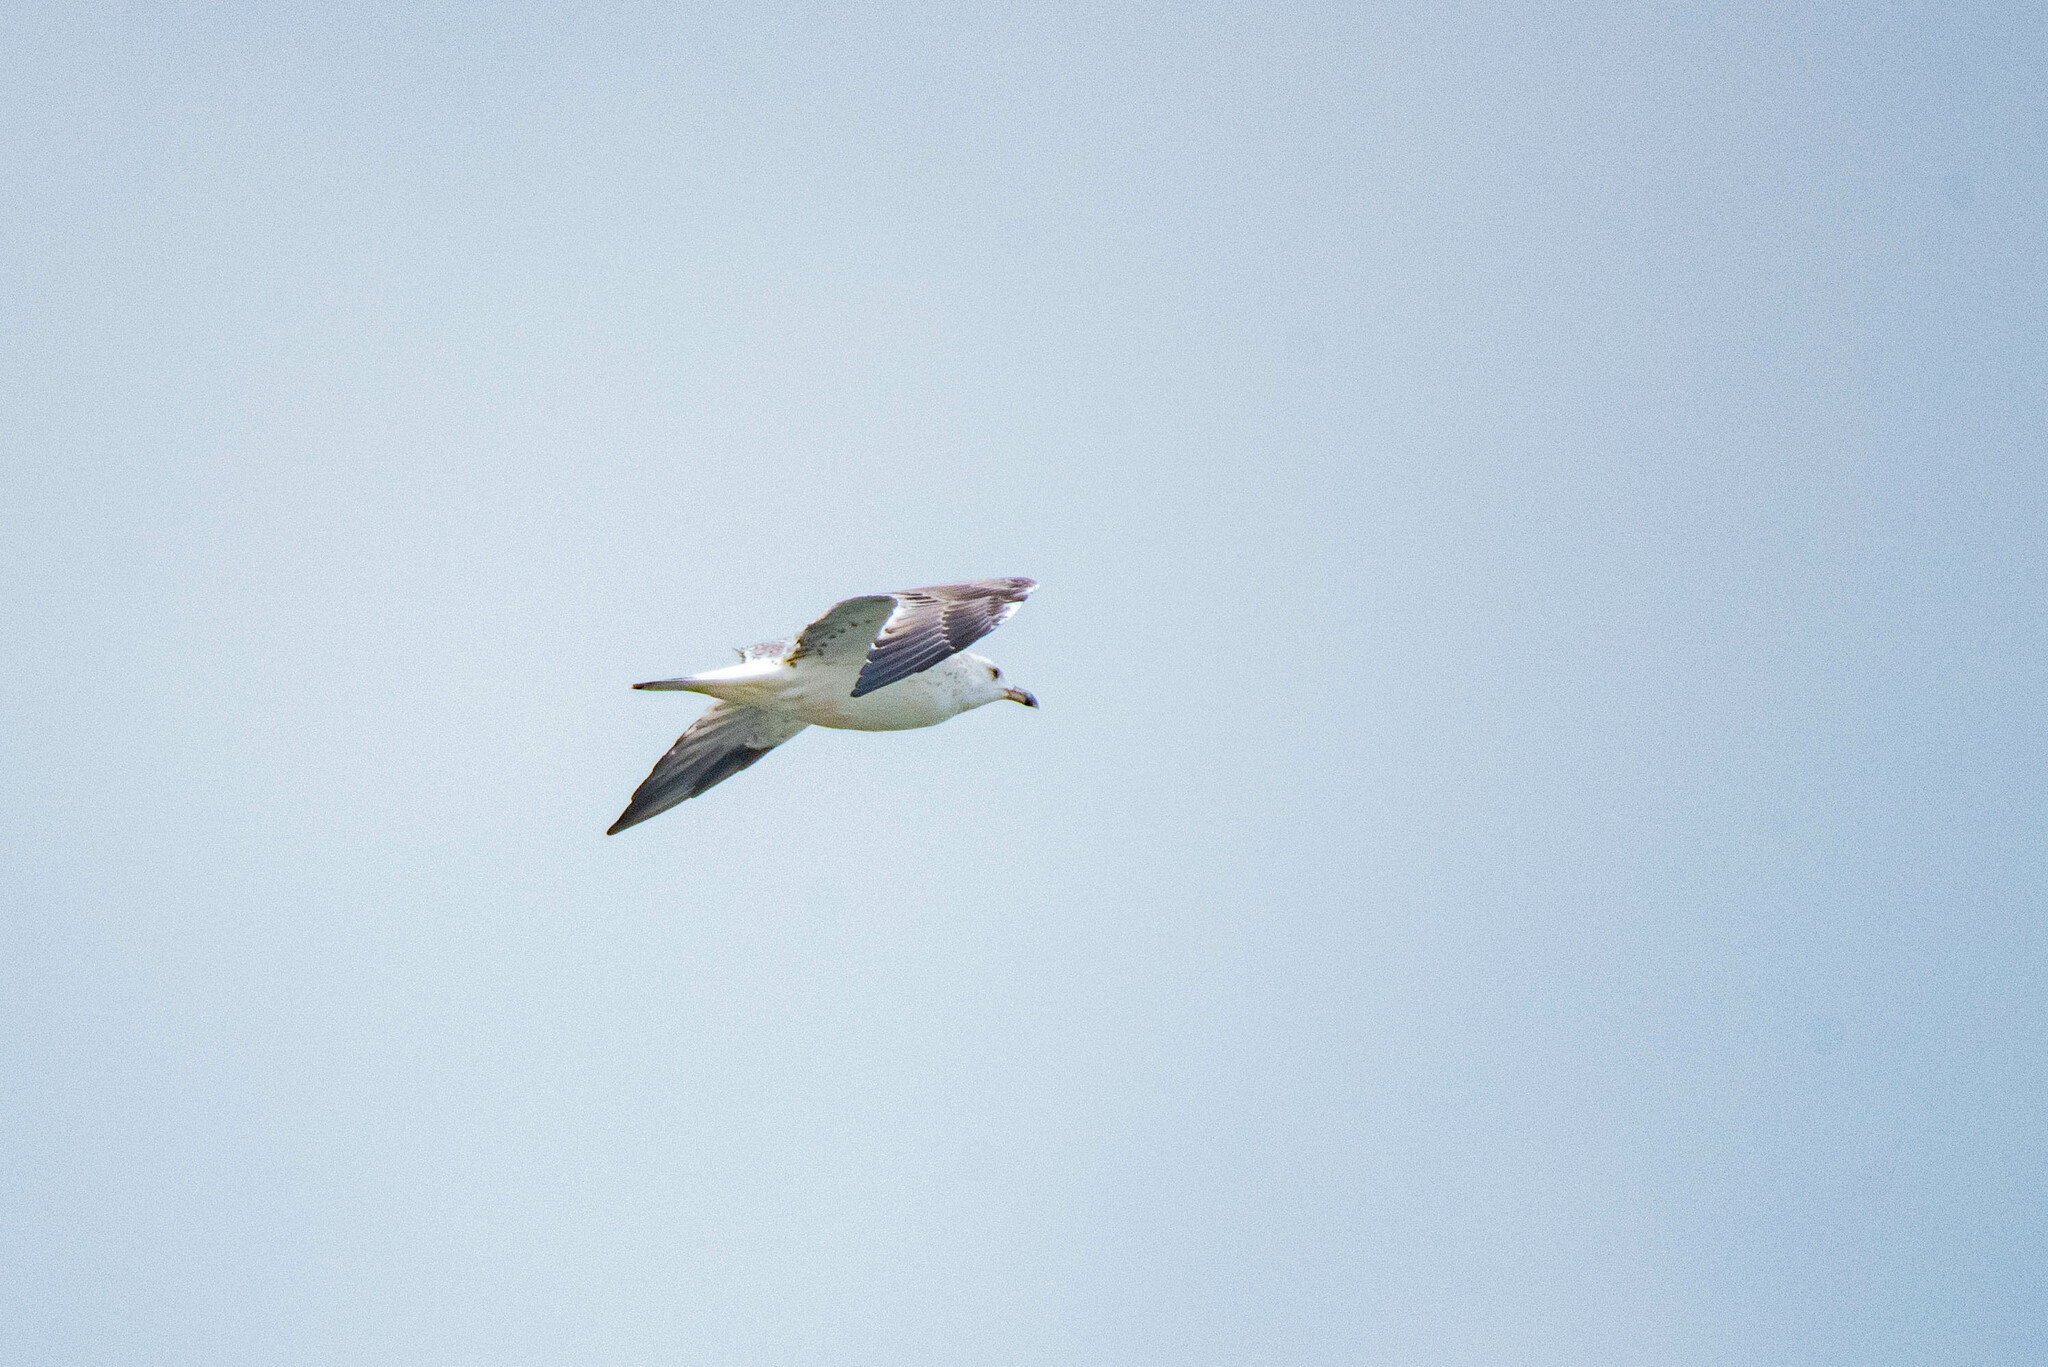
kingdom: Animalia
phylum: Chordata
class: Aves
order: Charadriiformes
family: Laridae
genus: Larus
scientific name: Larus fuscus
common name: Lesser black-backed gull
